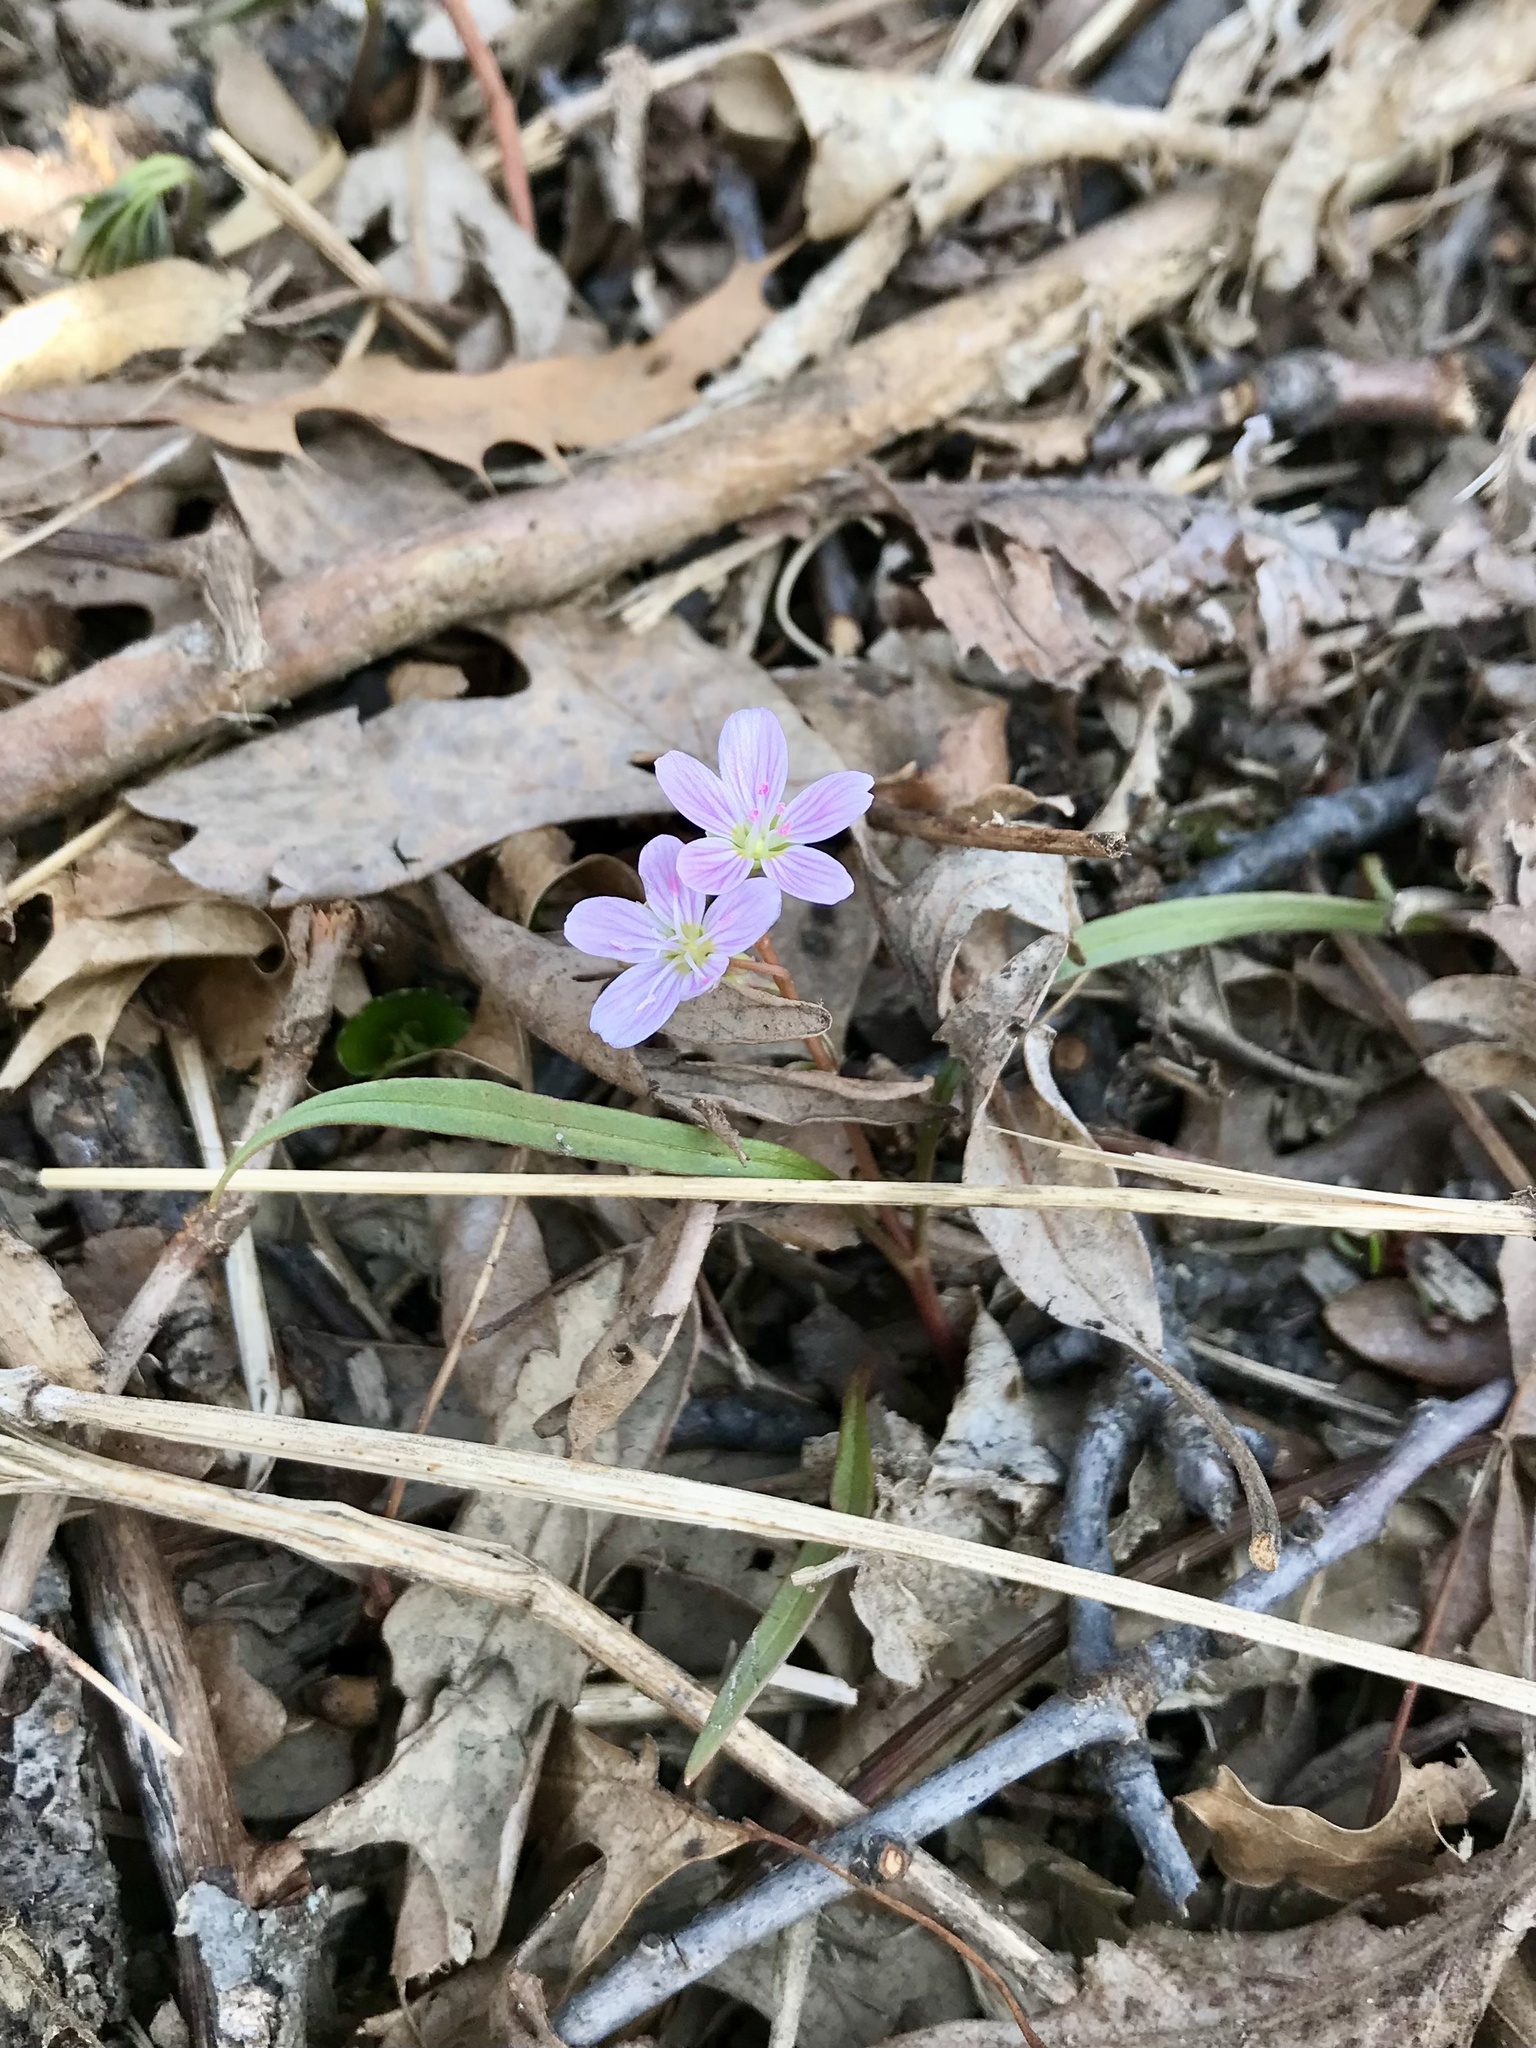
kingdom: Plantae
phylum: Tracheophyta
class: Magnoliopsida
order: Caryophyllales
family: Montiaceae
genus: Claytonia
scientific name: Claytonia virginica
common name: Virginia springbeauty
